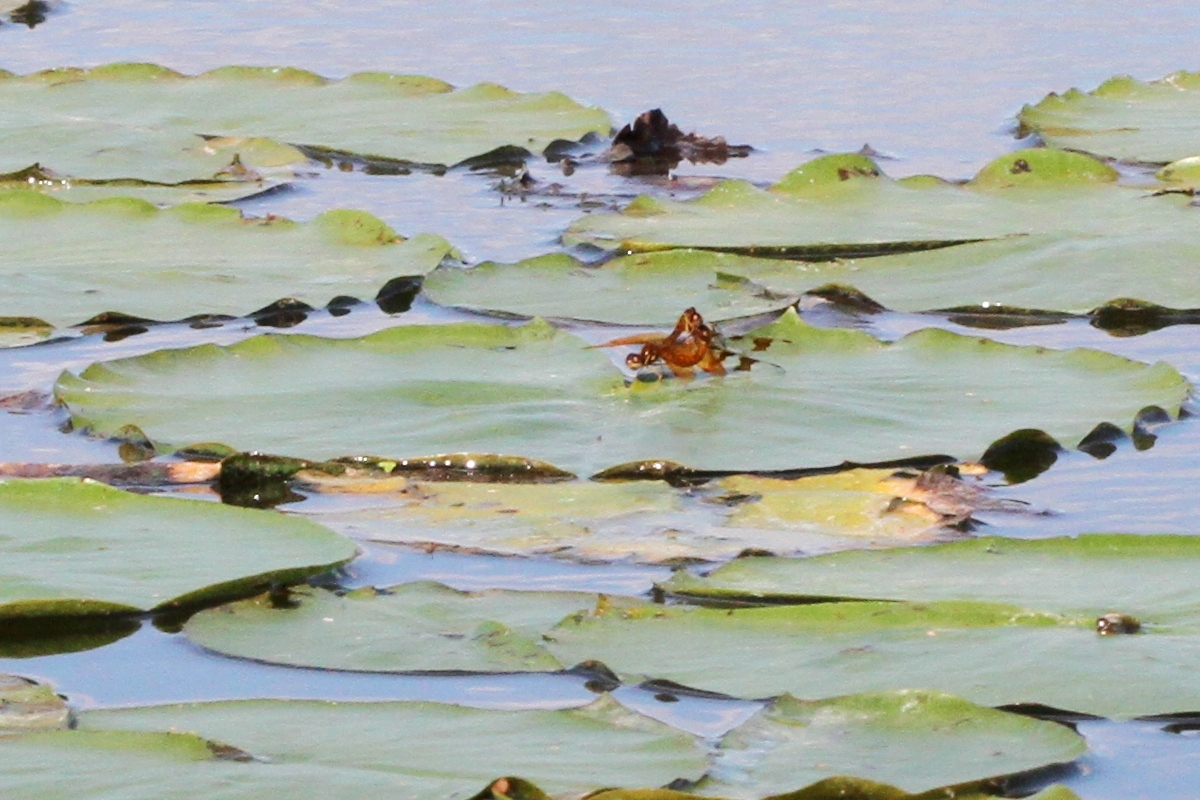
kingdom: Animalia
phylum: Arthropoda
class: Insecta
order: Odonata
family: Libellulidae
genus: Perithemis
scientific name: Perithemis tenera
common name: Eastern amberwing
